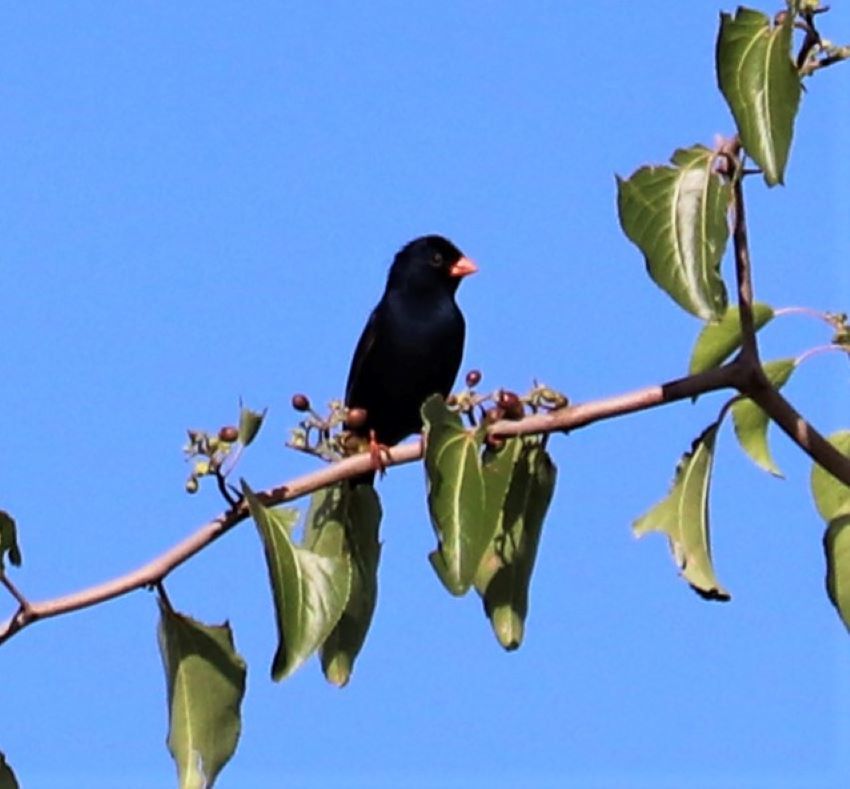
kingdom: Animalia
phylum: Chordata
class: Aves
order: Passeriformes
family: Viduidae
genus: Vidua
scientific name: Vidua chalybeata
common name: Village indigobird
